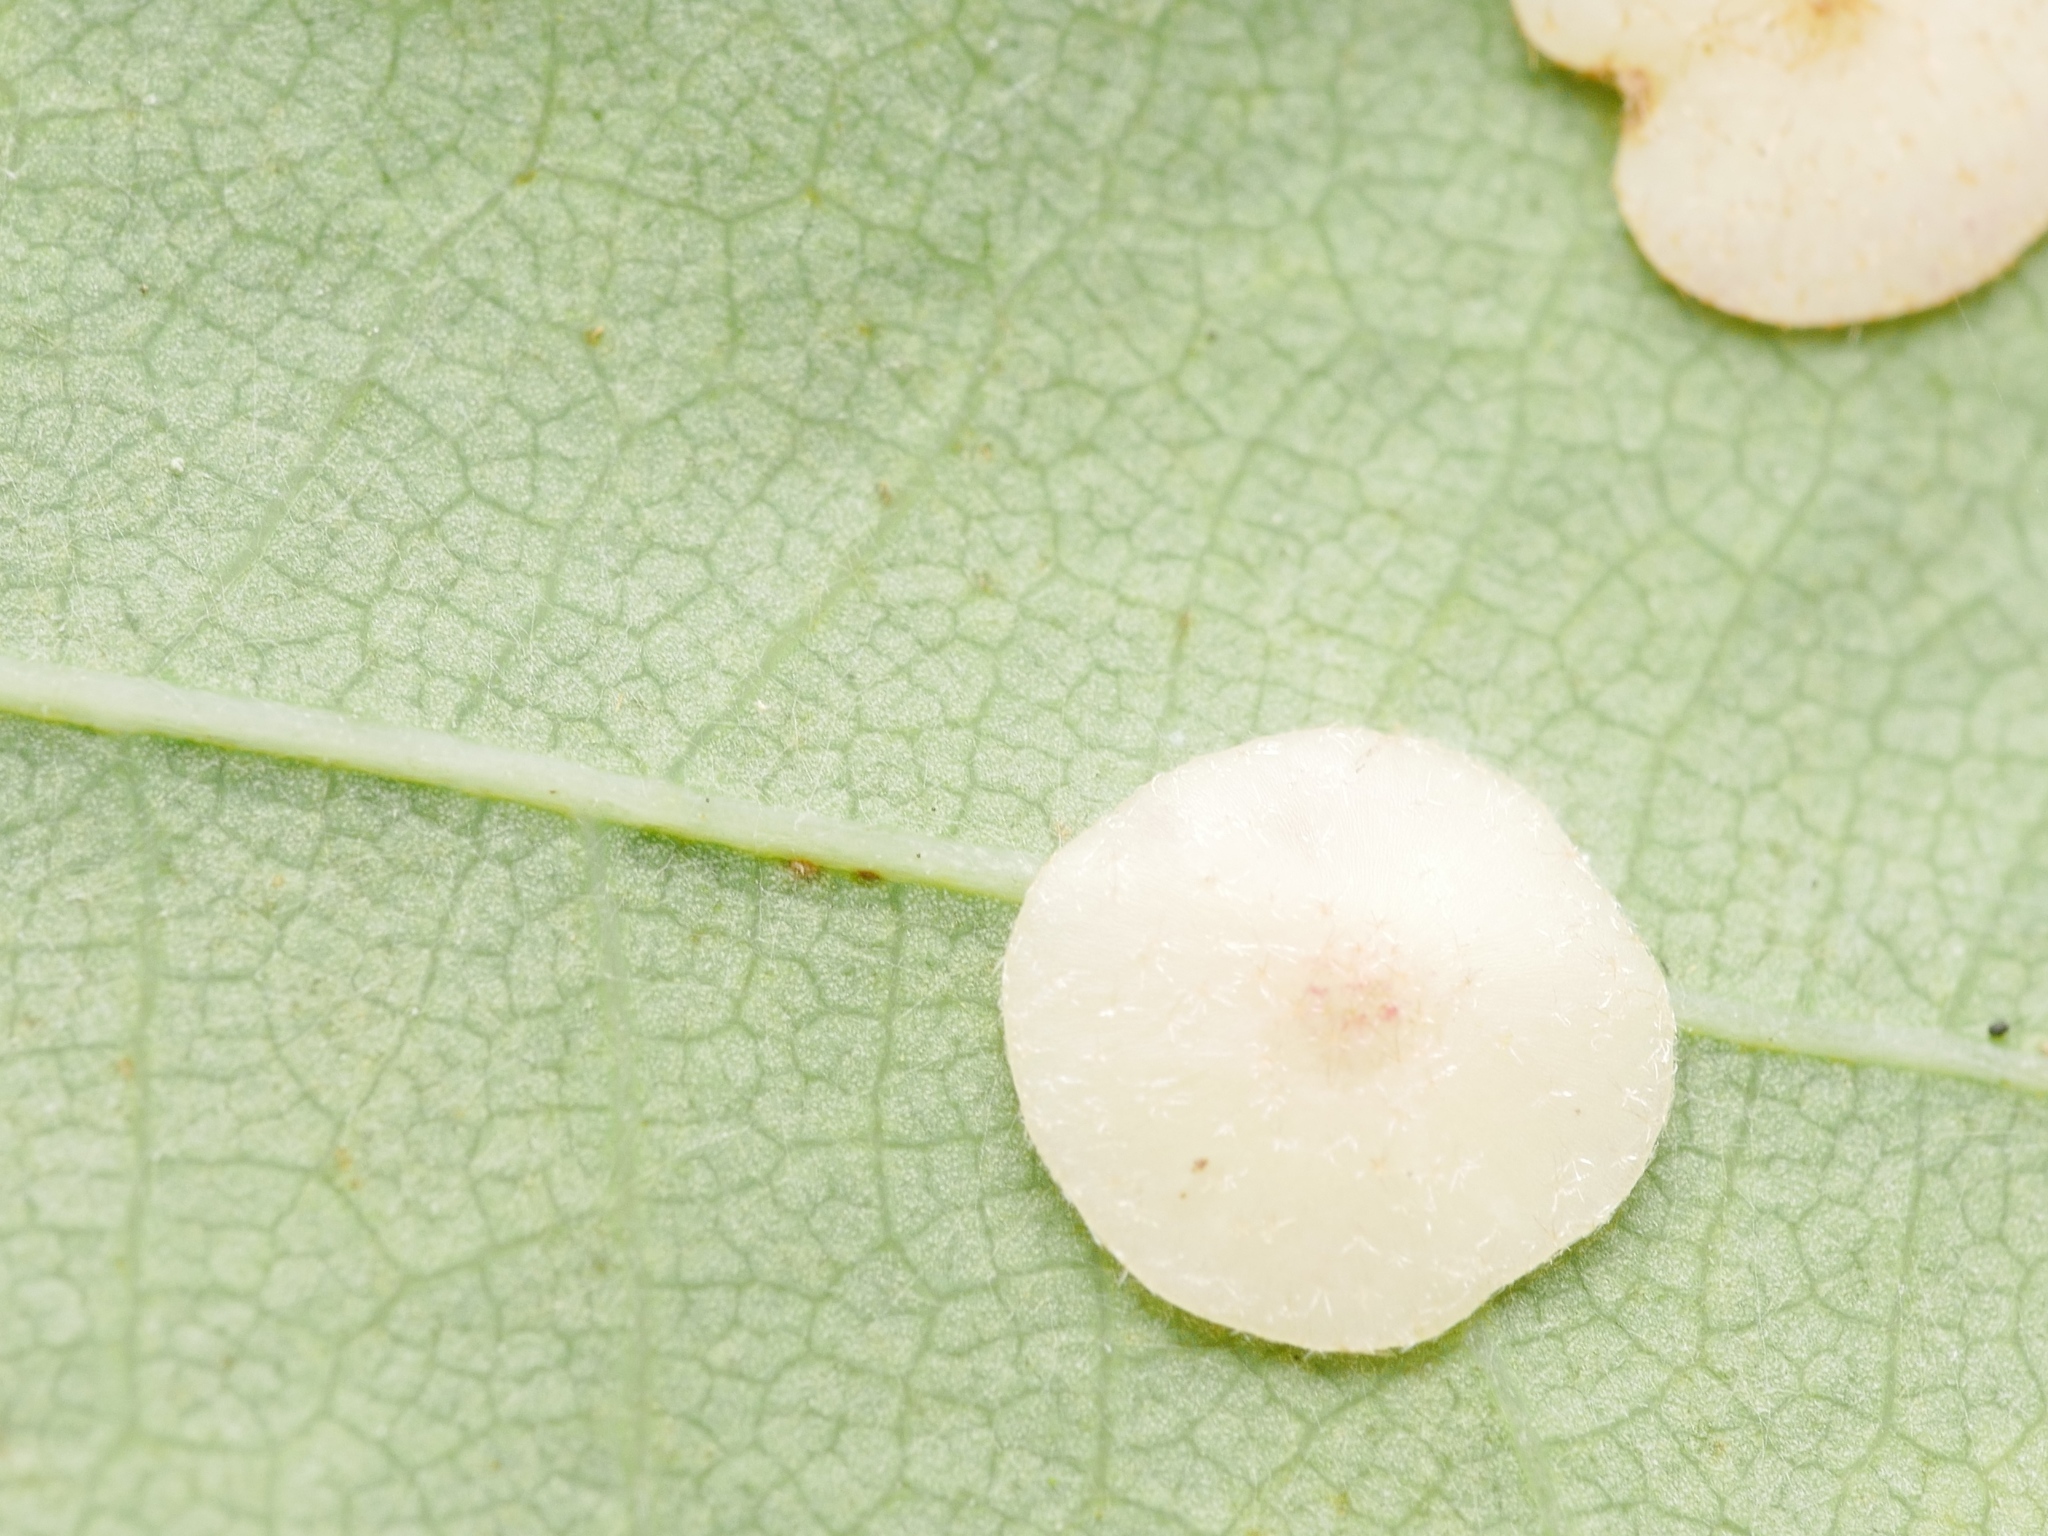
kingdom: Animalia
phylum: Arthropoda
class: Insecta
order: Hymenoptera
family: Cynipidae
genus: Neuroterus
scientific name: Neuroterus quercusbaccarum
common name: Common spangle gall
